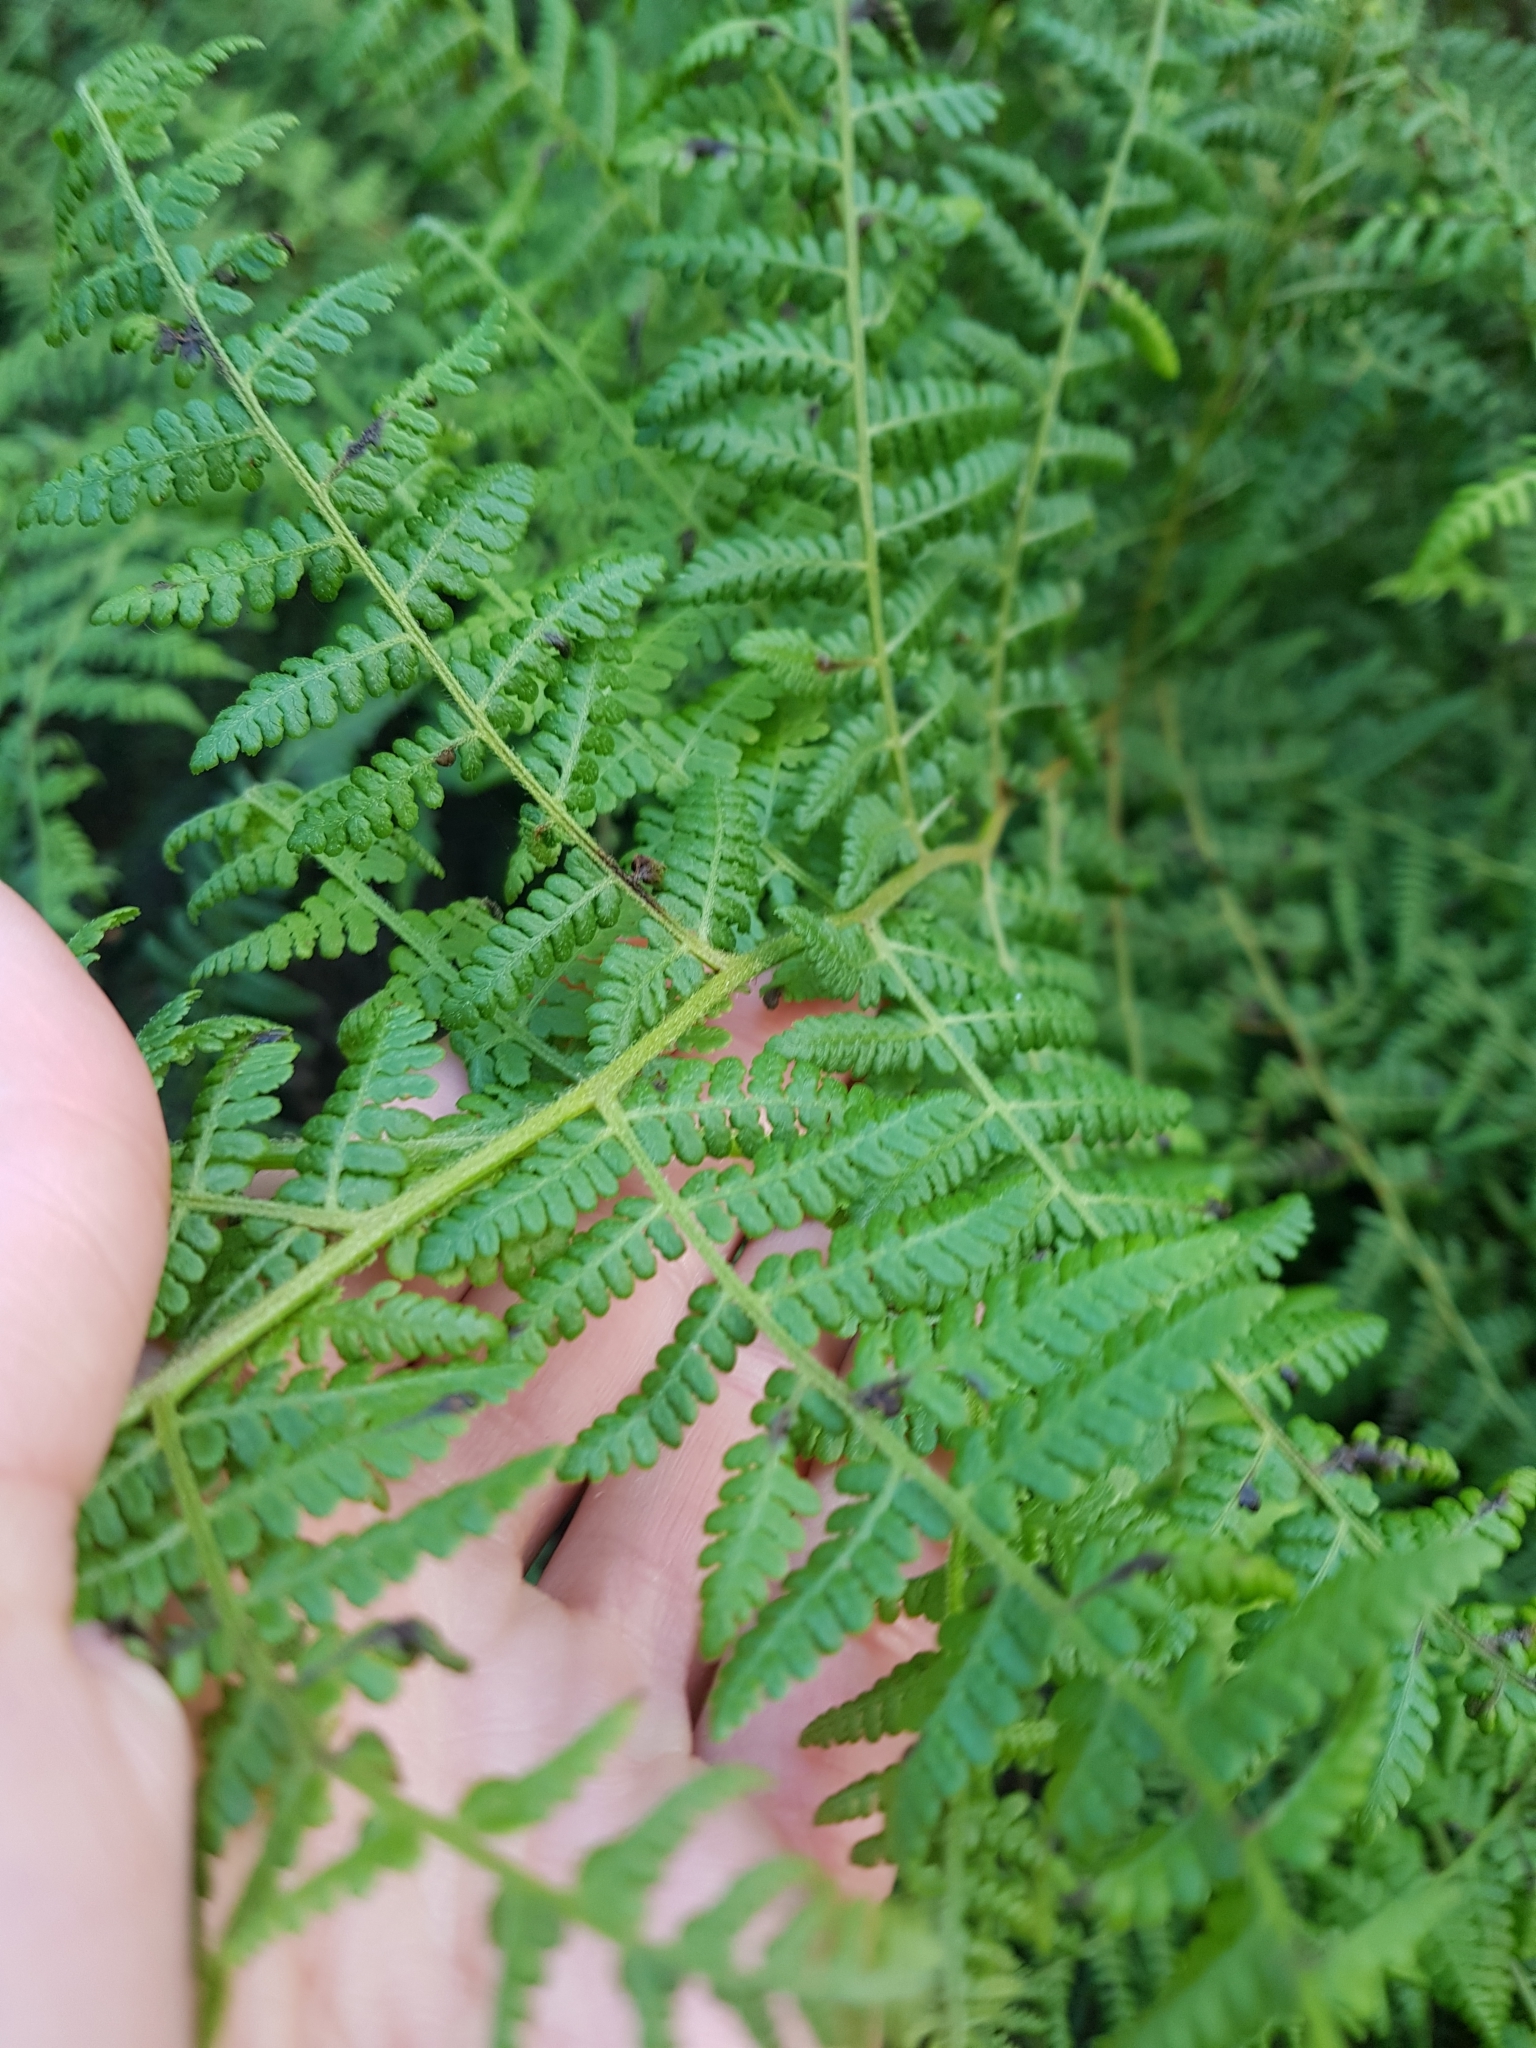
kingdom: Plantae
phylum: Tracheophyta
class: Polypodiopsida
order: Polypodiales
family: Dennstaedtiaceae
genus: Hypolepis
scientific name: Hypolepis ambigua
